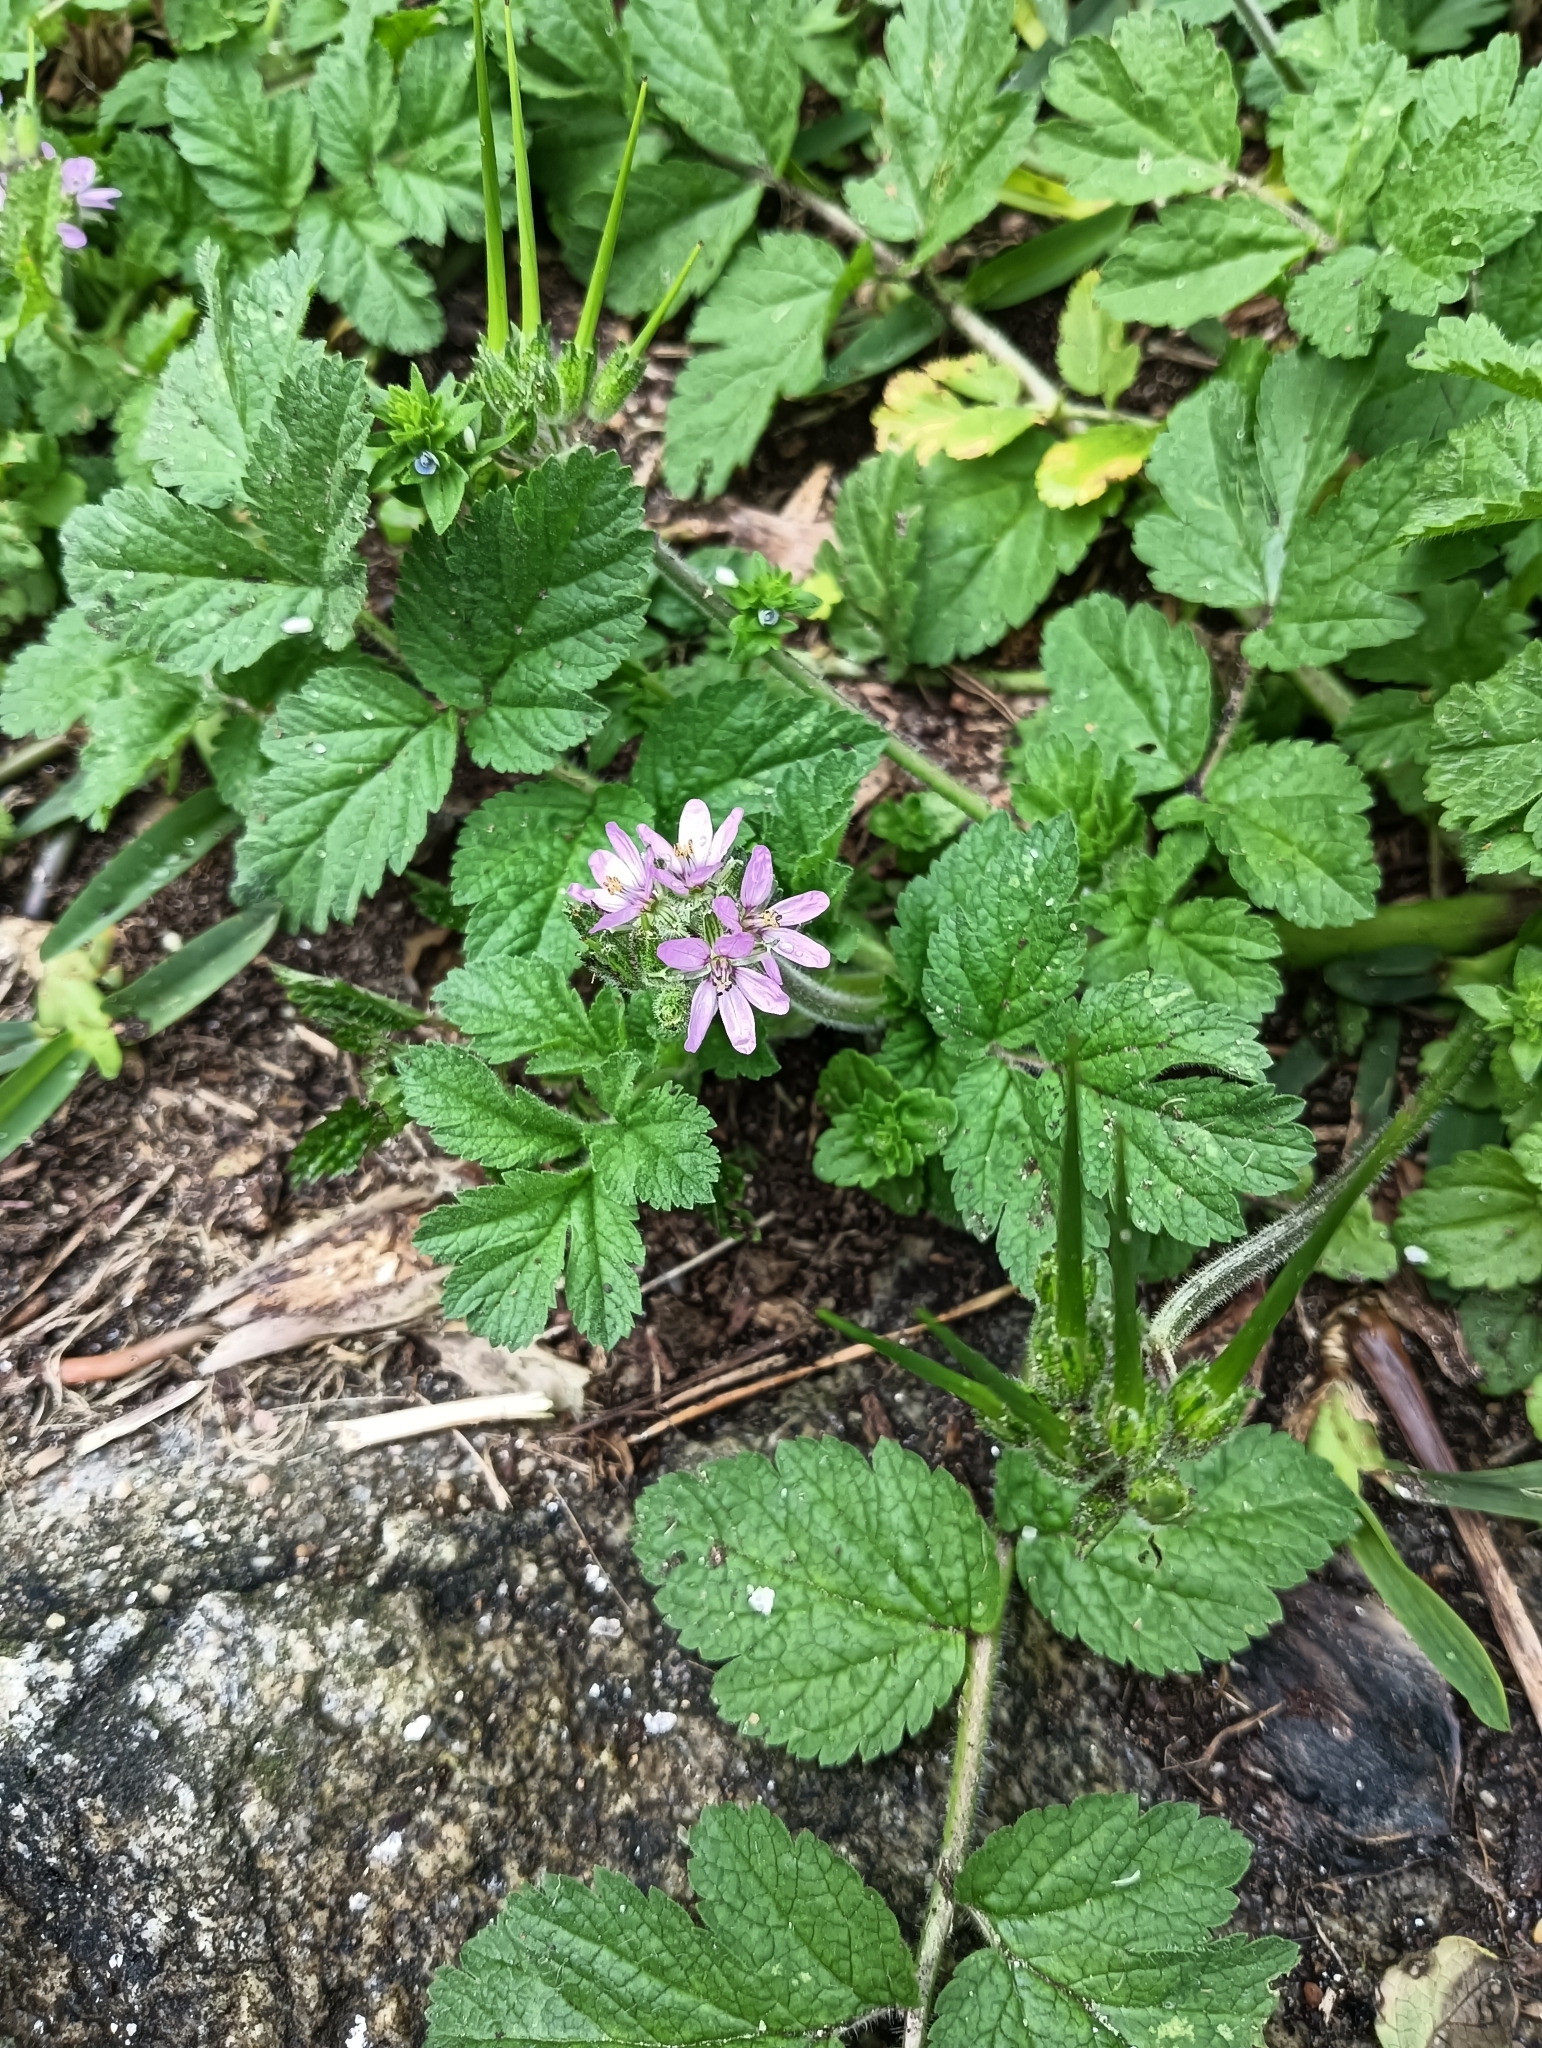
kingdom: Plantae
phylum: Tracheophyta
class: Magnoliopsida
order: Geraniales
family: Geraniaceae
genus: Erodium
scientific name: Erodium moschatum
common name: Musk stork's-bill
